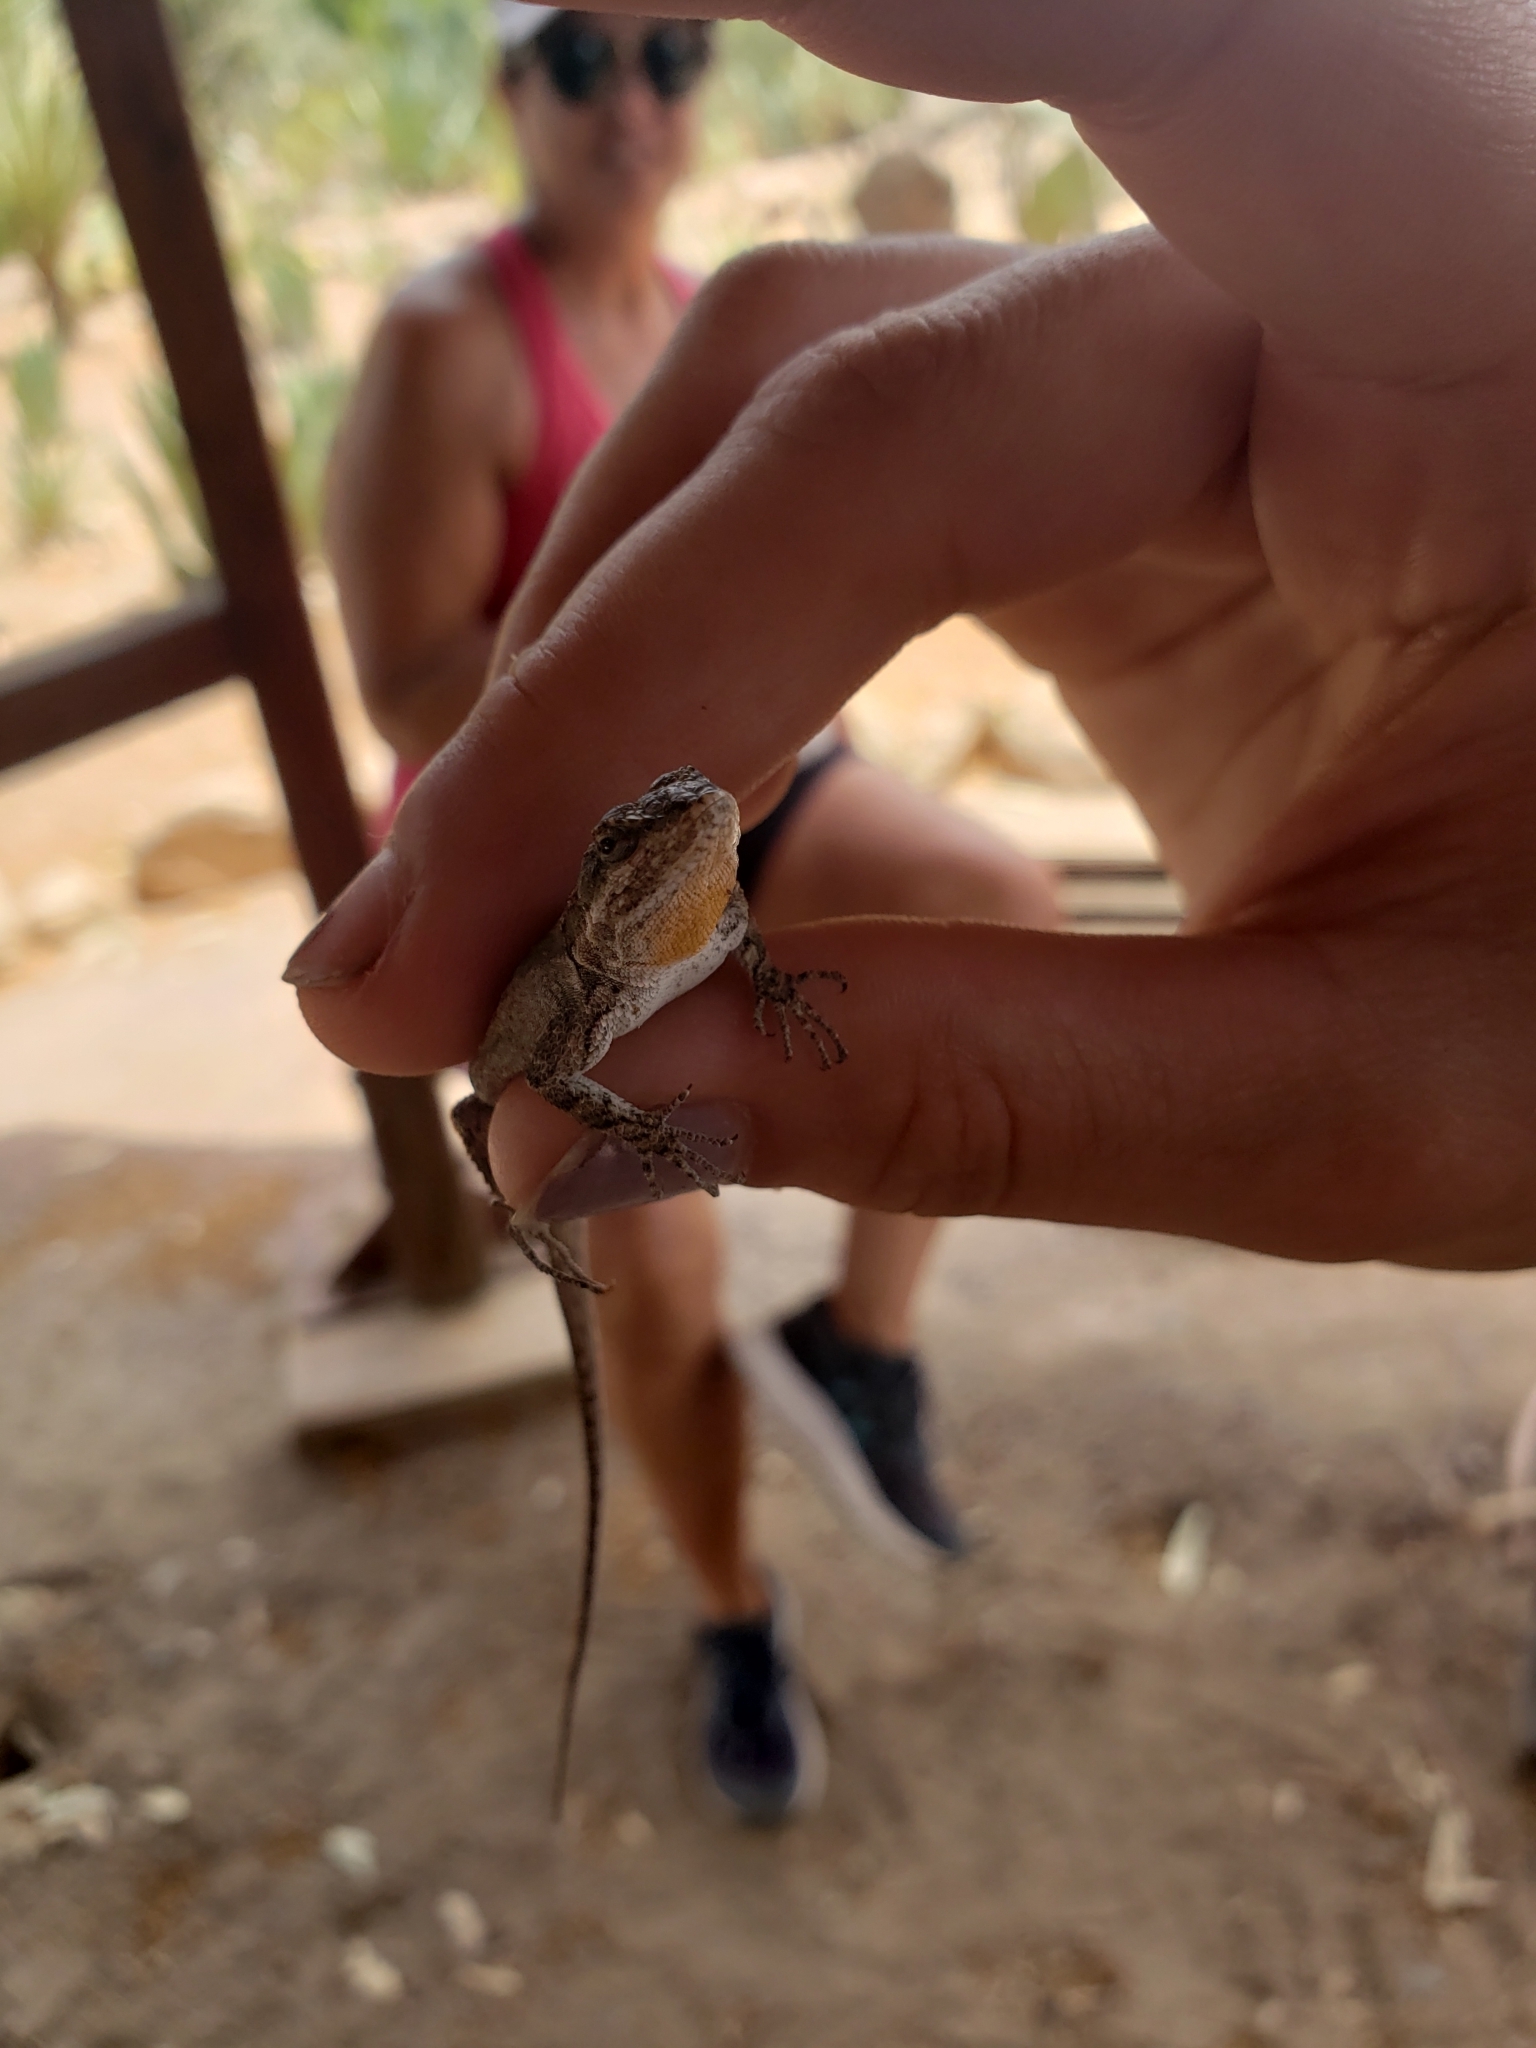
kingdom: Animalia
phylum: Chordata
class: Squamata
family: Phrynosomatidae
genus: Urosaurus
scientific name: Urosaurus ornatus
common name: Ornate tree lizard
